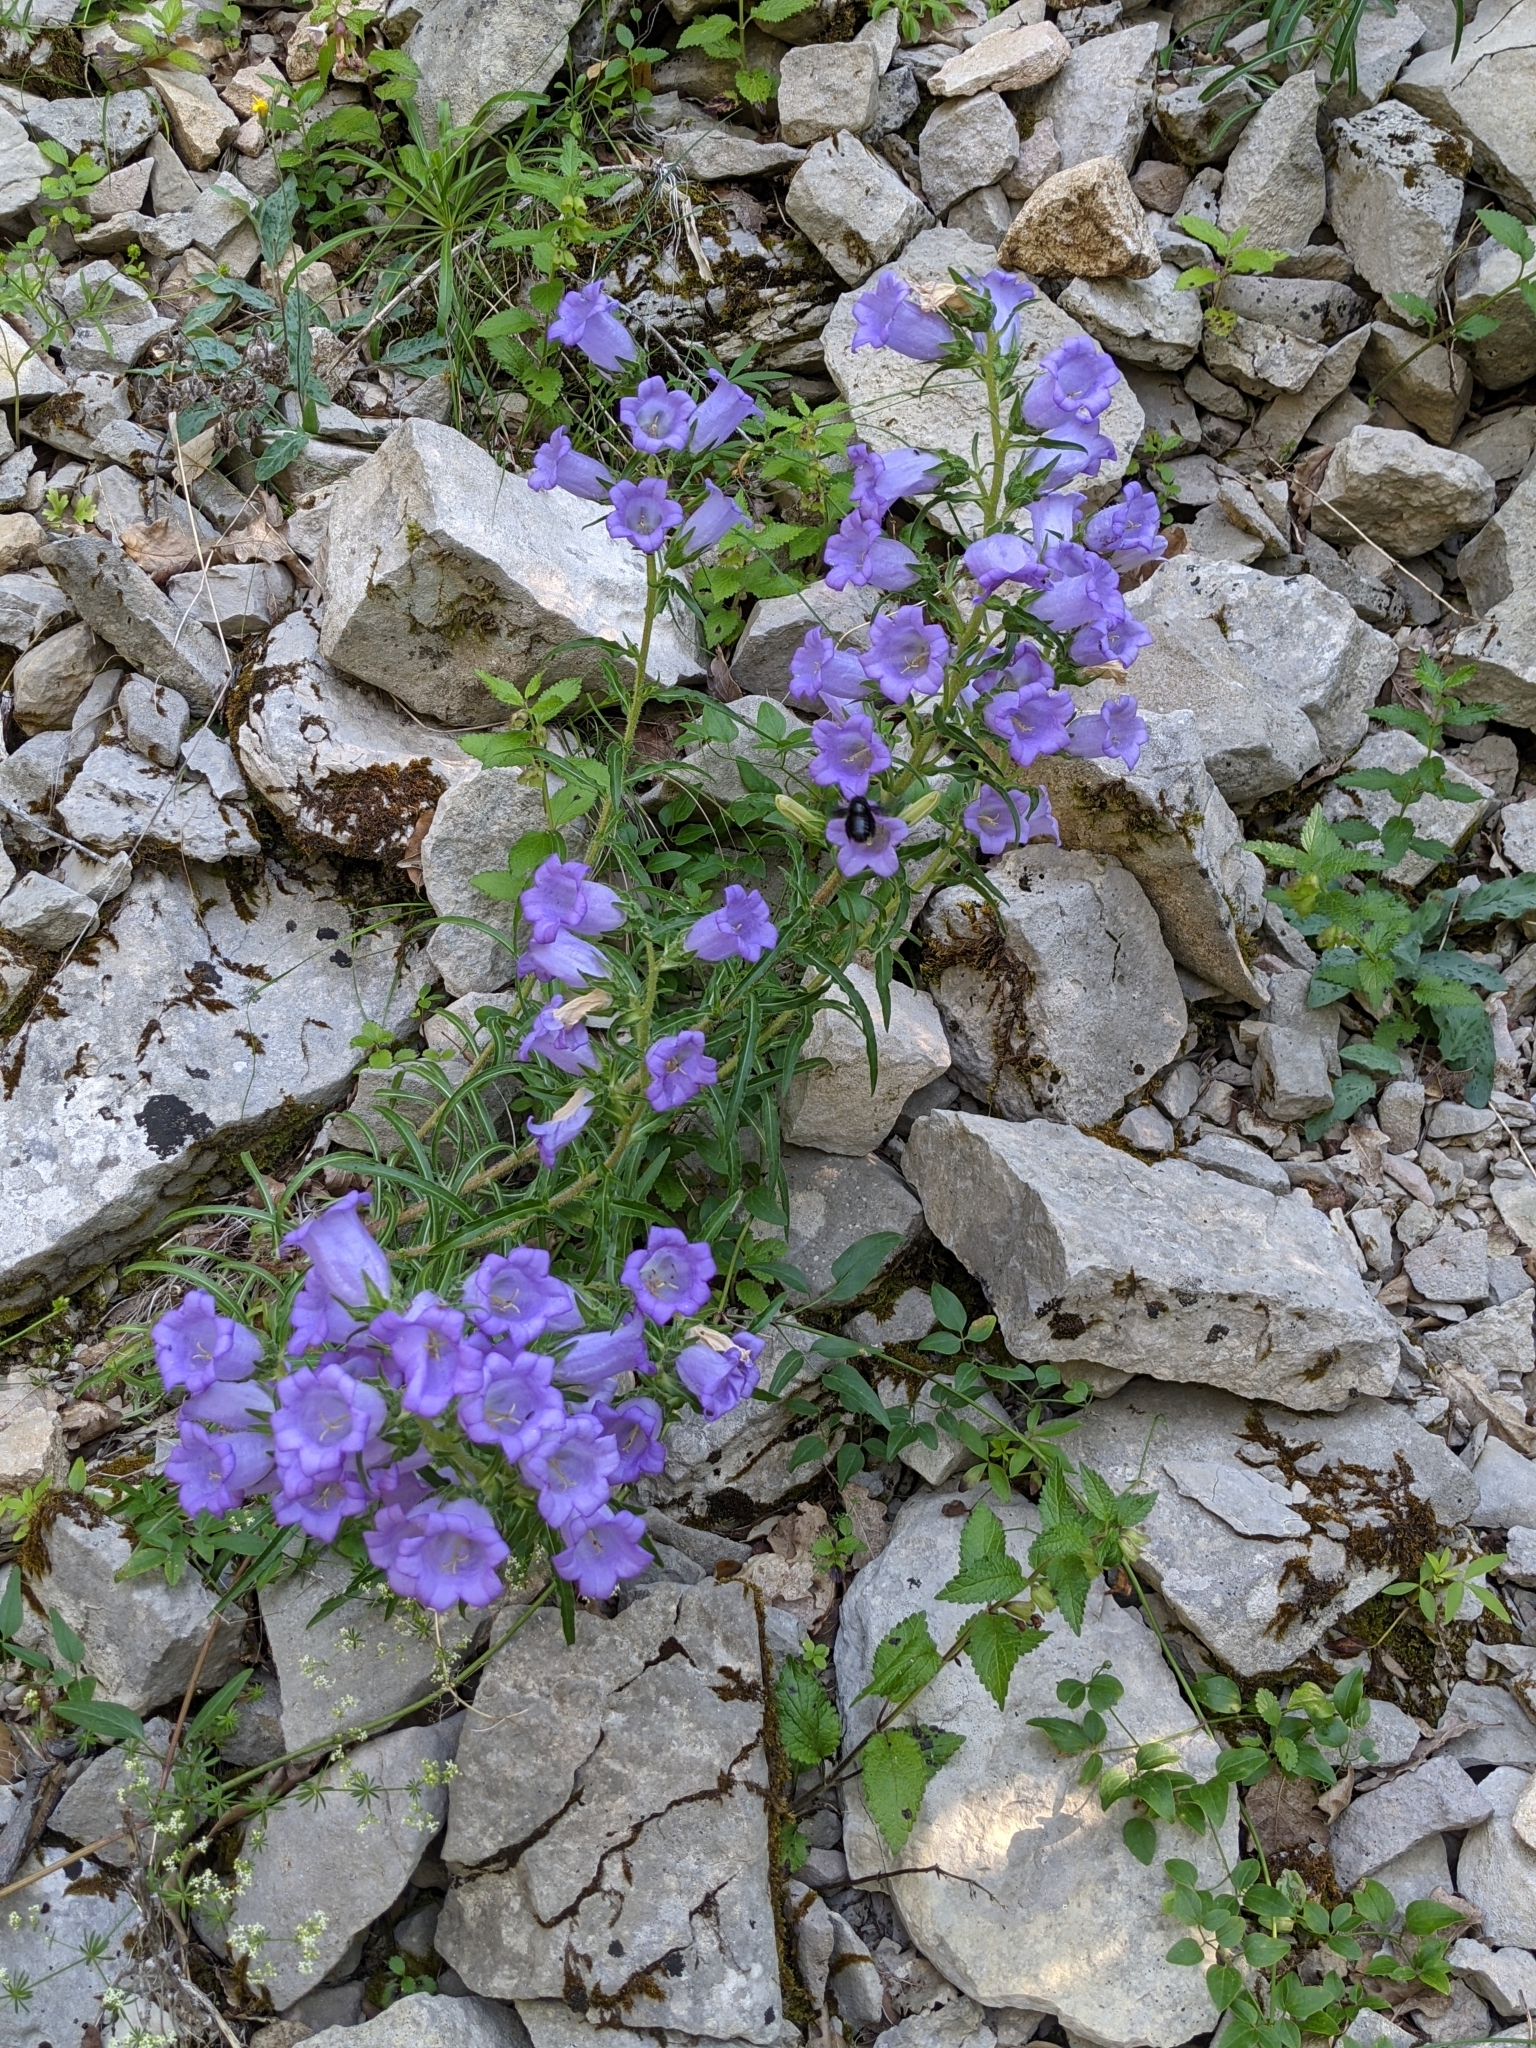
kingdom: Plantae
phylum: Tracheophyta
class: Magnoliopsida
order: Asterales
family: Campanulaceae
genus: Campanula
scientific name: Campanula speciosa
